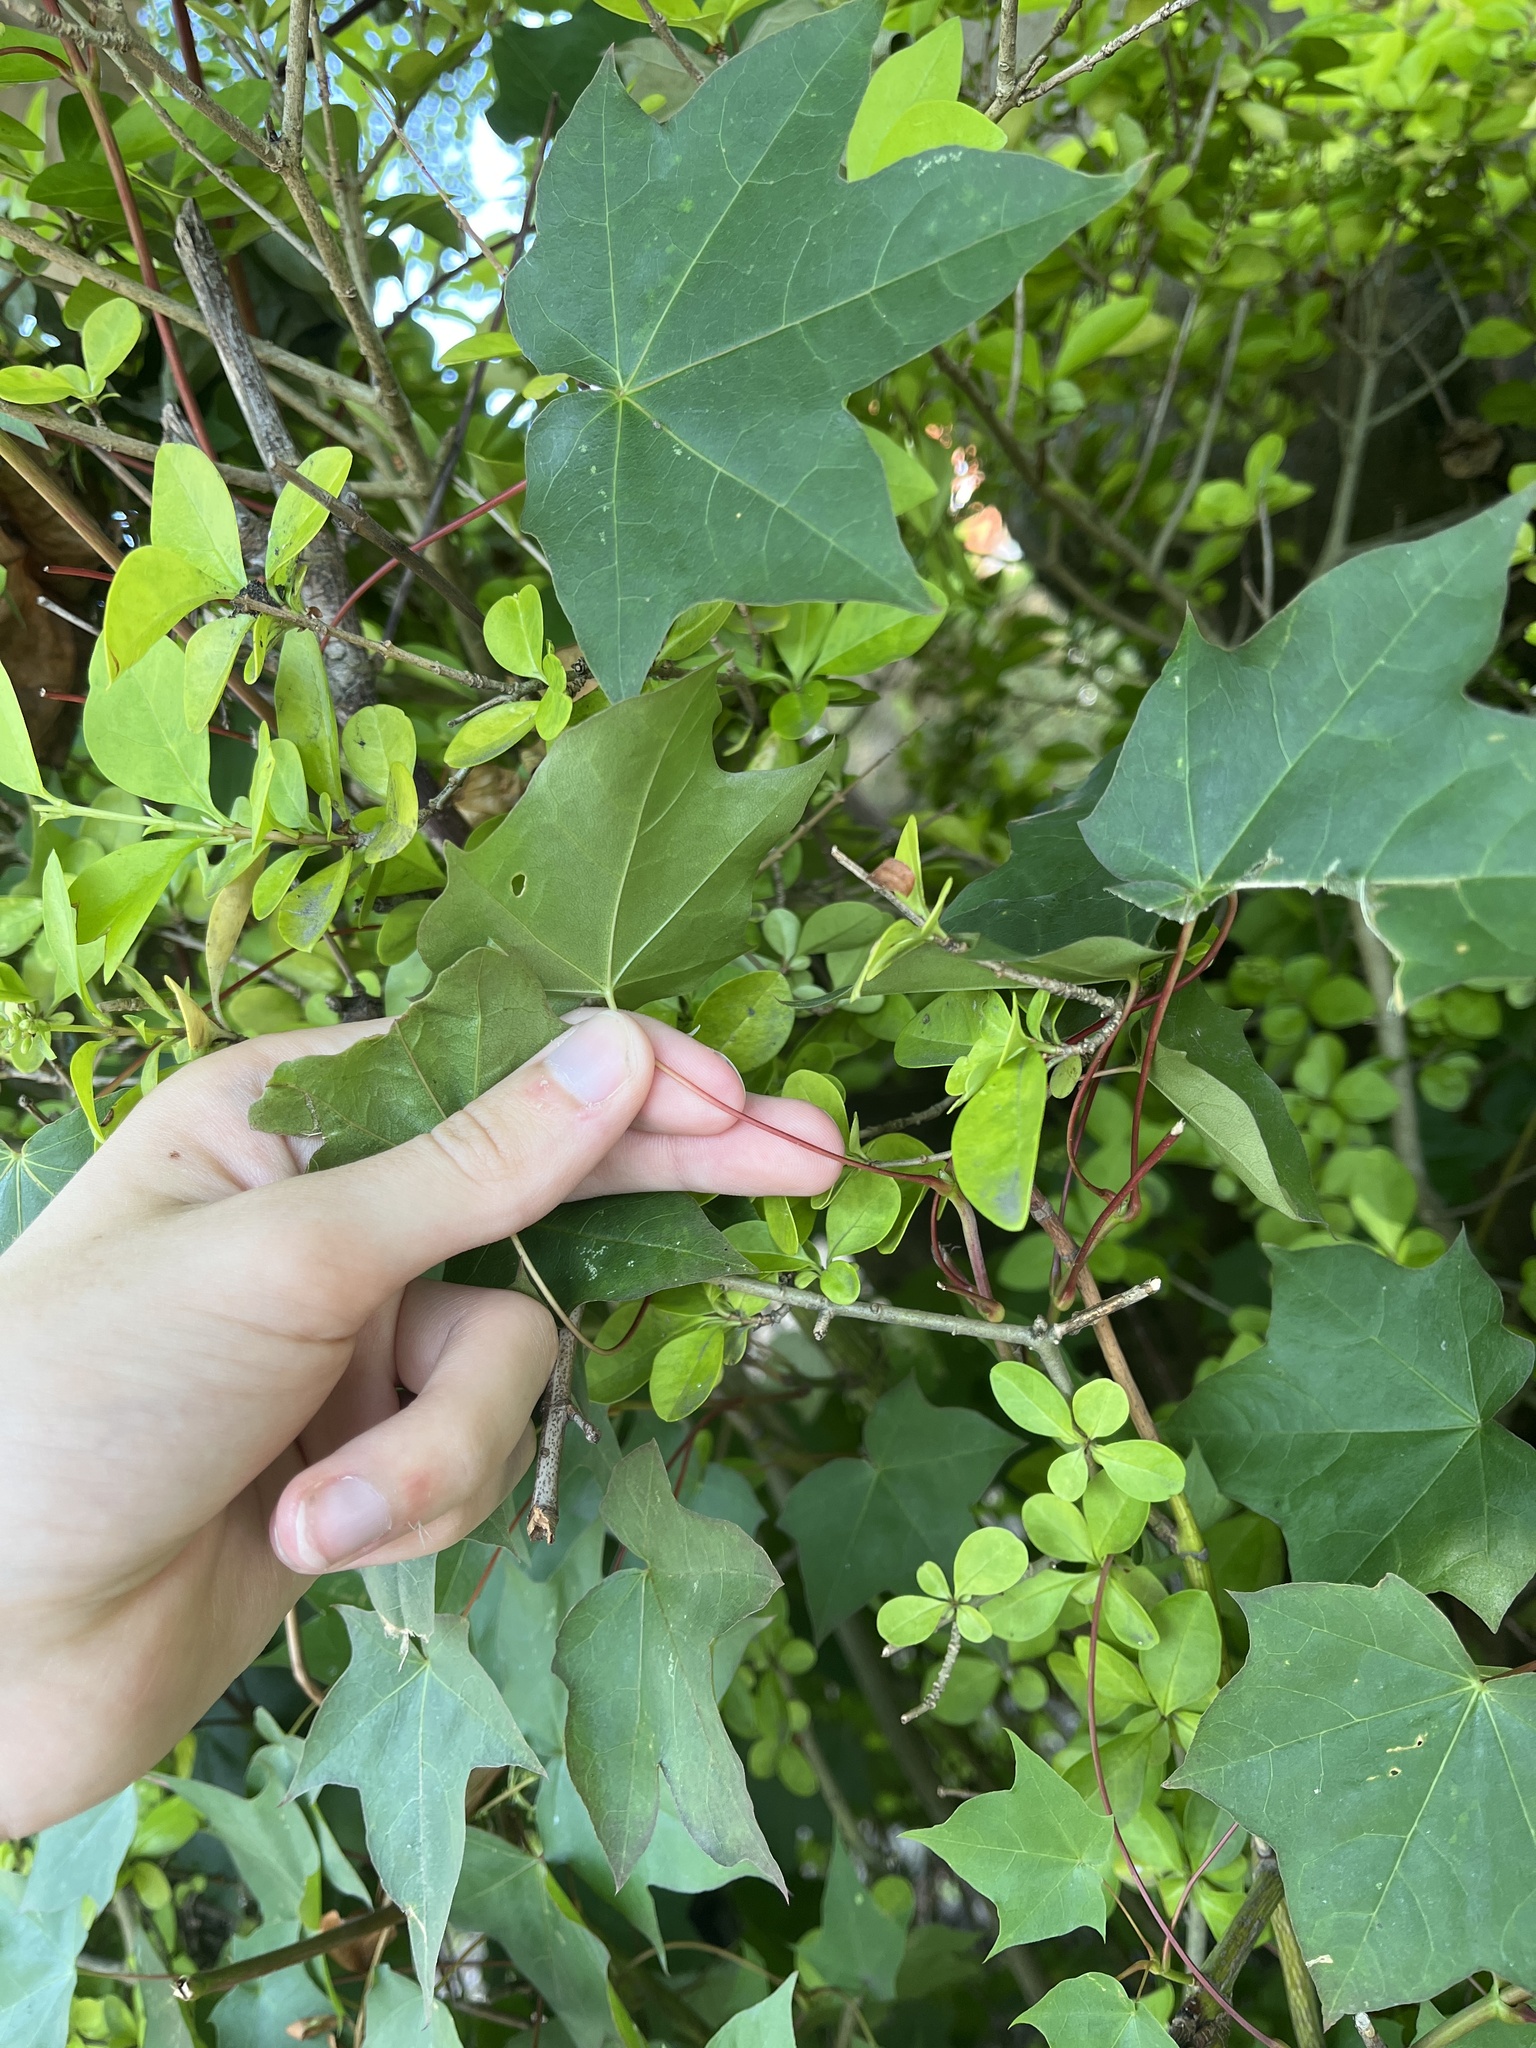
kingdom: Plantae
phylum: Tracheophyta
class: Magnoliopsida
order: Sapindales
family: Sapindaceae
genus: Acer
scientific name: Acer cappadocicum
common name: Cappadocian maple
